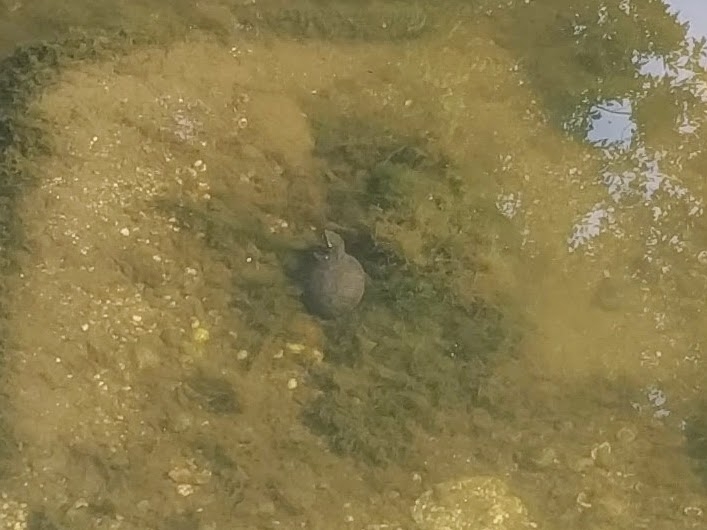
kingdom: Animalia
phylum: Chordata
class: Testudines
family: Kinosternidae
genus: Sternotherus
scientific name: Sternotherus odoratus
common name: Common musk turtle
